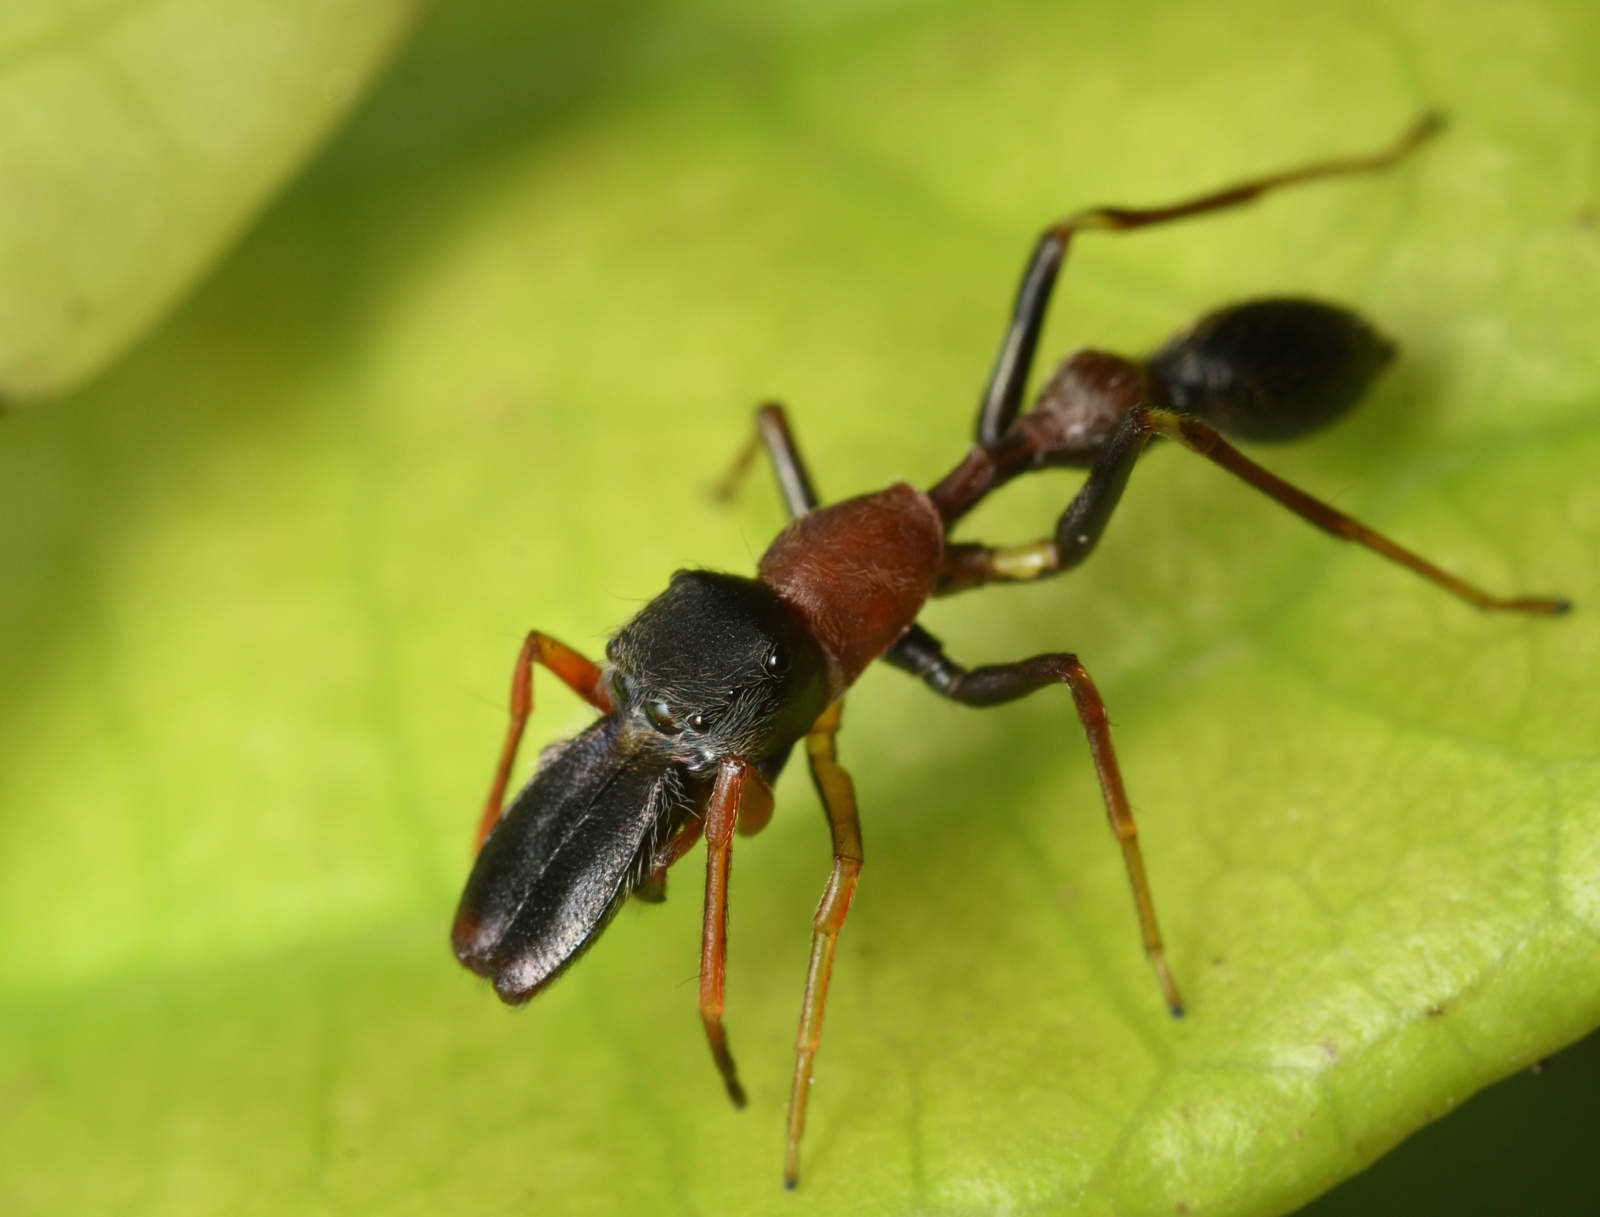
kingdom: Animalia
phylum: Arthropoda
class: Arachnida
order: Araneae
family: Salticidae
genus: Myrmarachne
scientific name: Myrmarachne melanocephala
